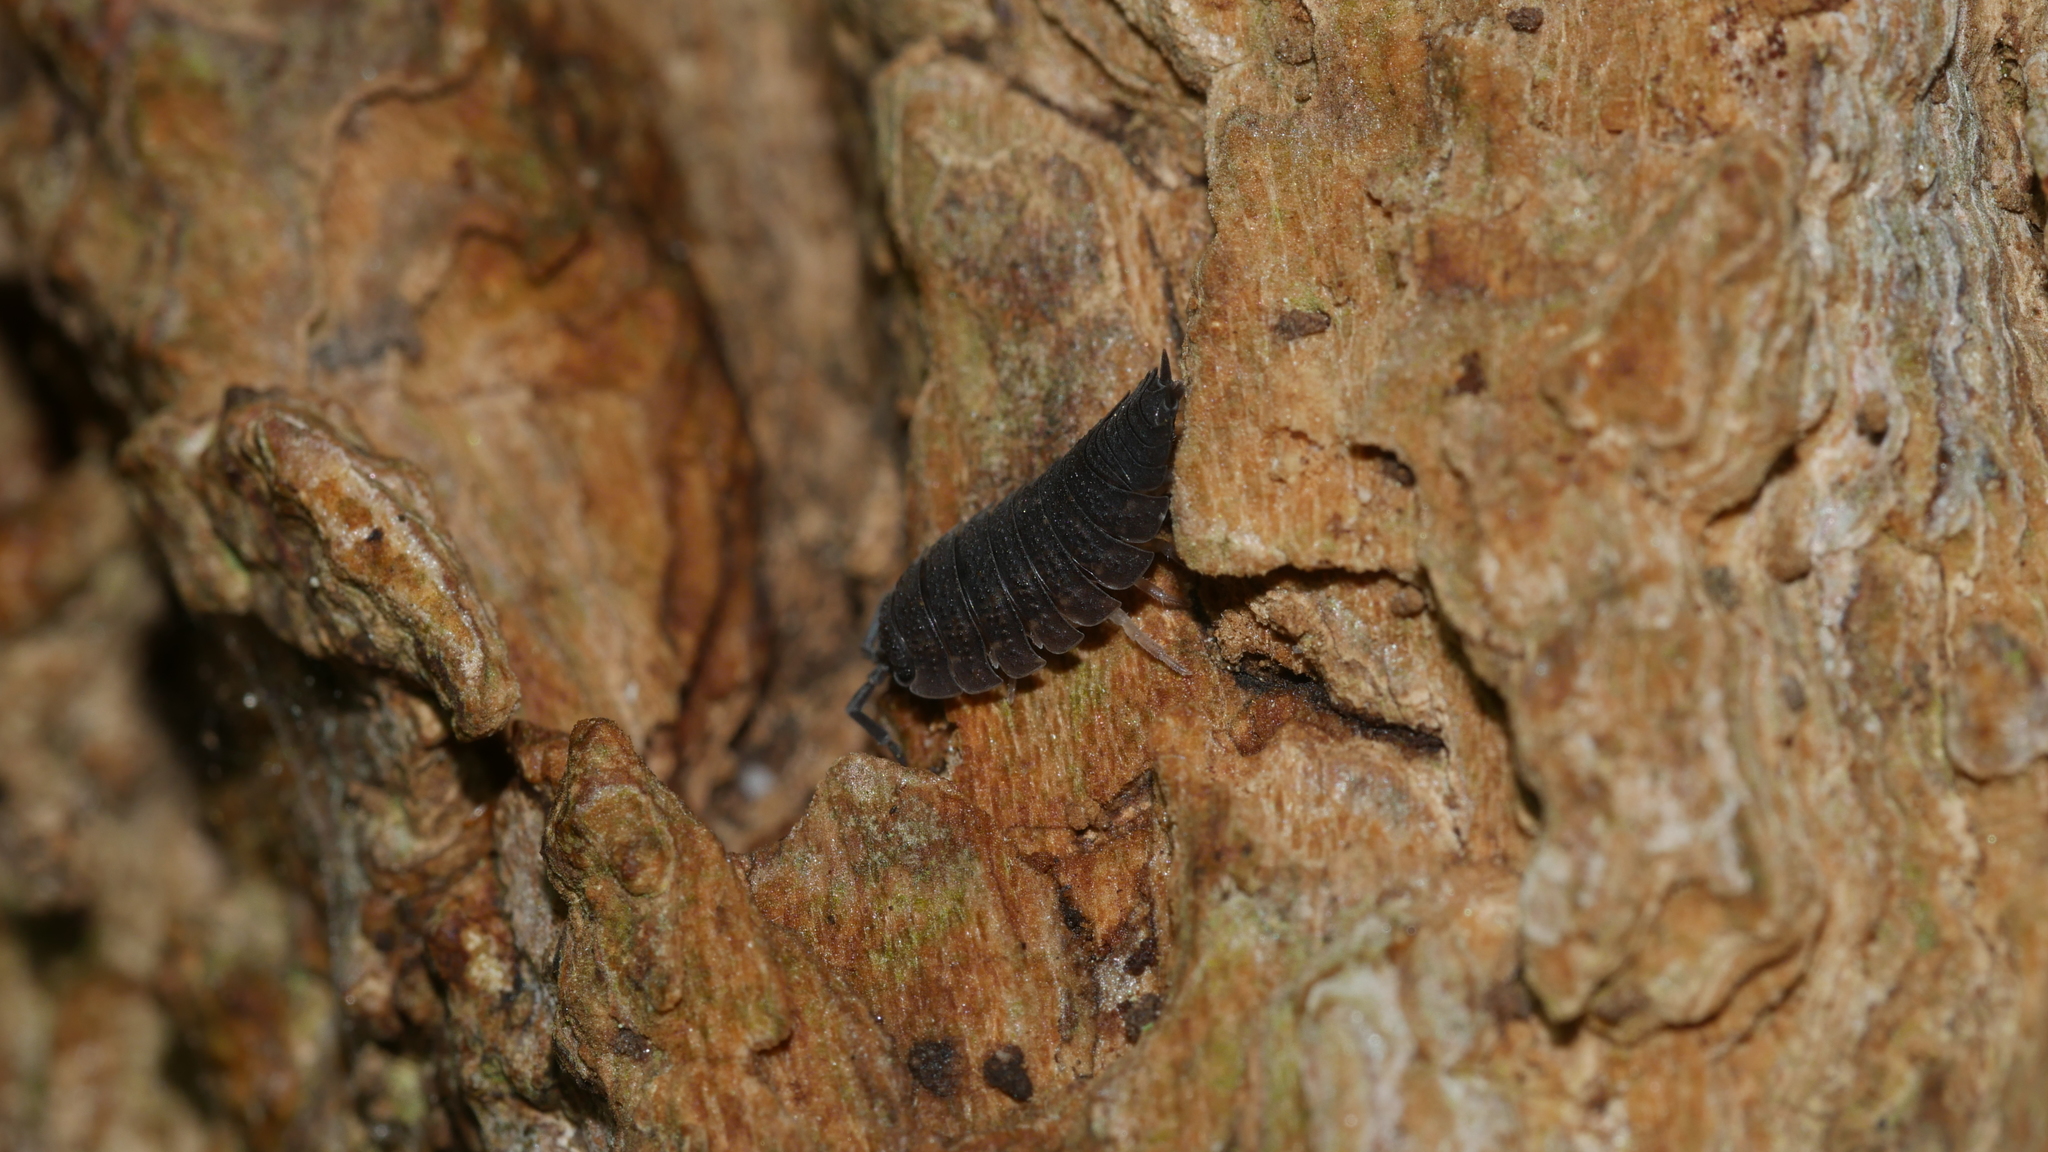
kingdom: Animalia
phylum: Arthropoda
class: Malacostraca
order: Isopoda
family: Porcellionidae
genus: Porcellio
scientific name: Porcellio scaber
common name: Common rough woodlouse
